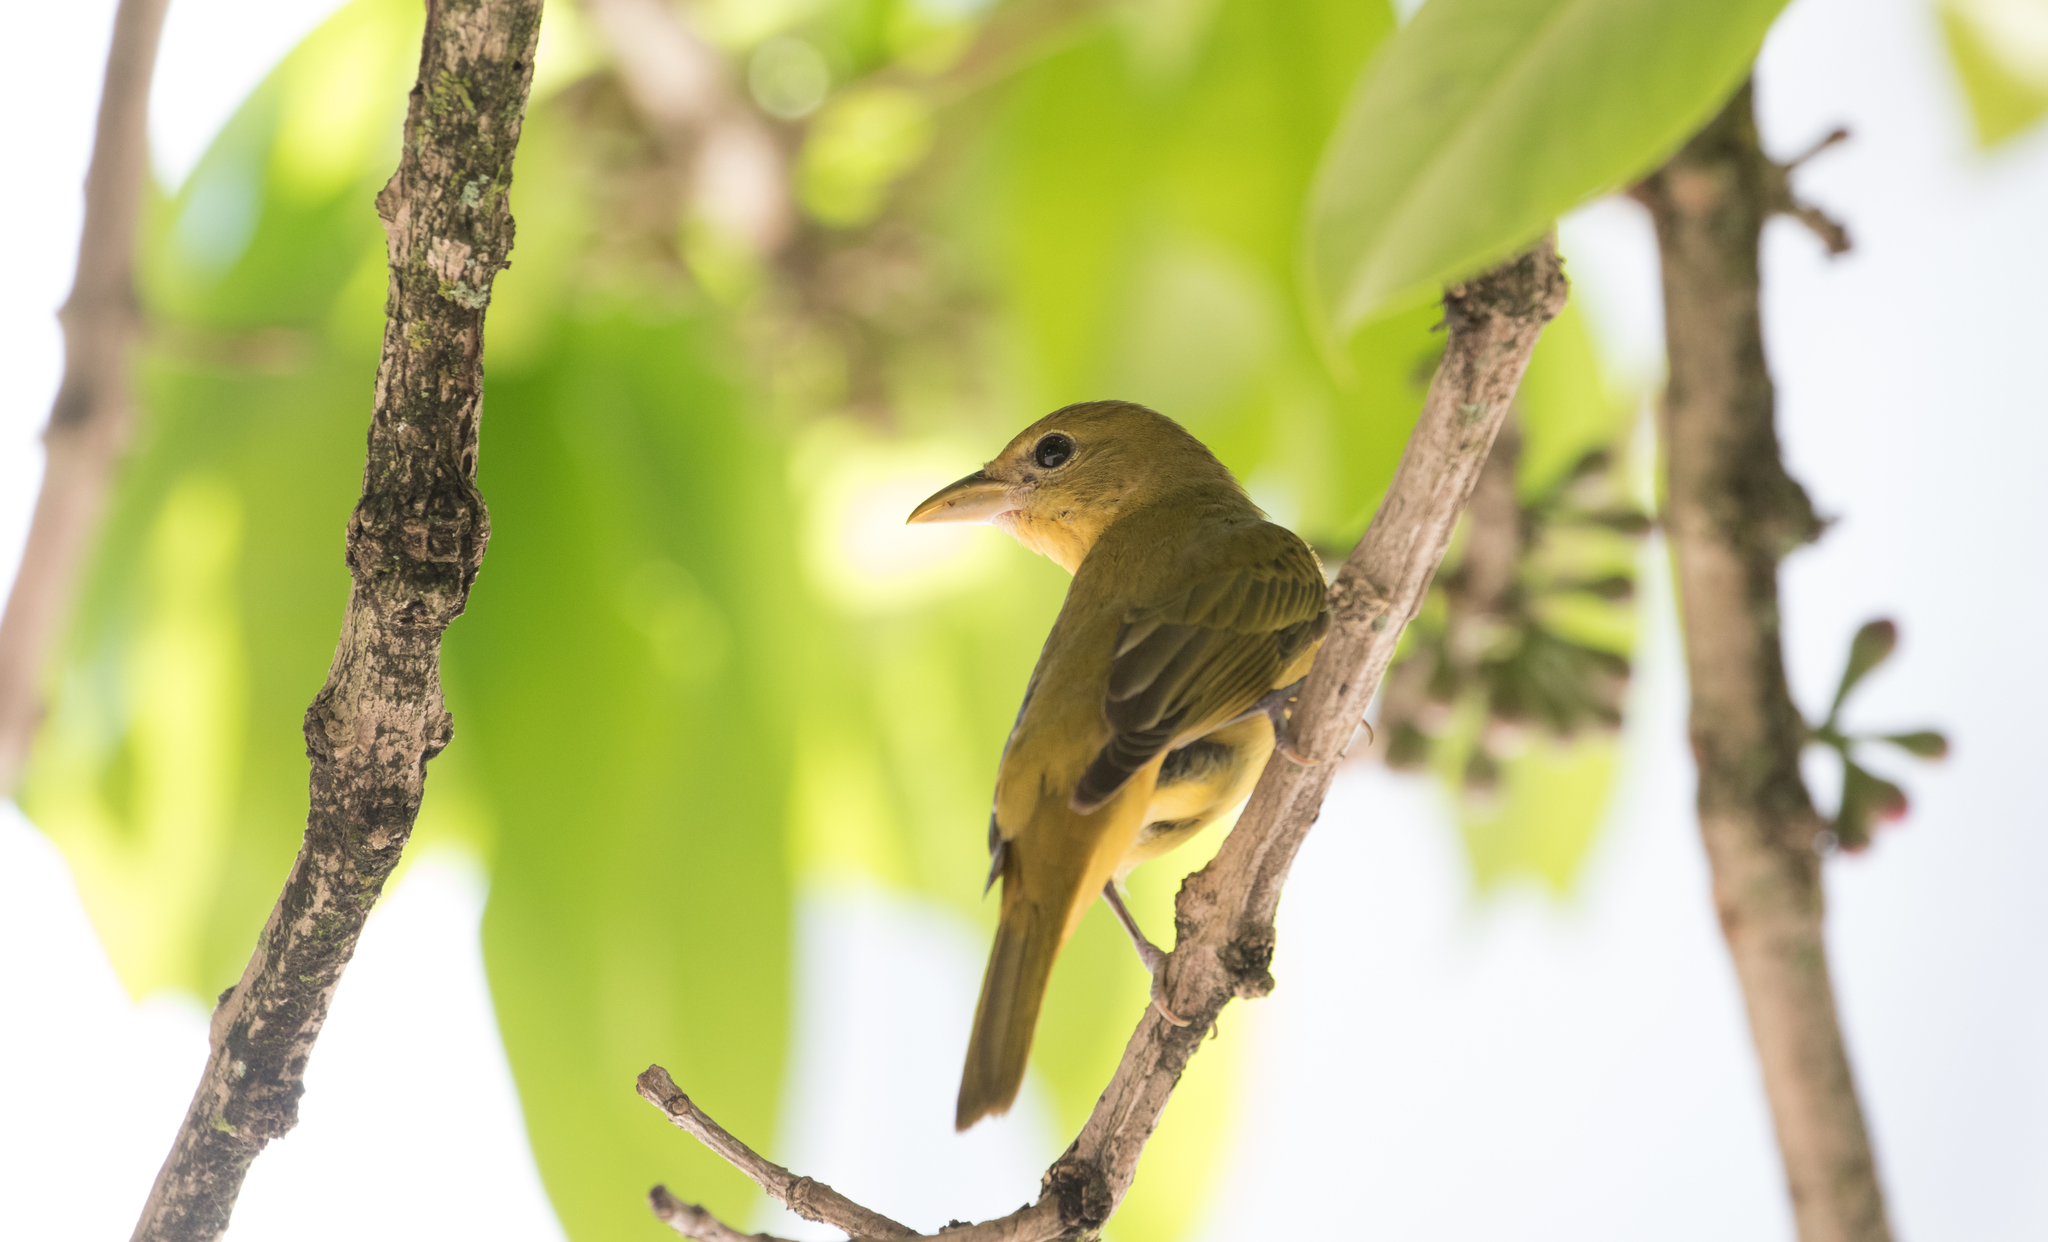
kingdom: Animalia
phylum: Chordata
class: Aves
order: Passeriformes
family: Cardinalidae
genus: Piranga
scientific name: Piranga rubra
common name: Summer tanager
